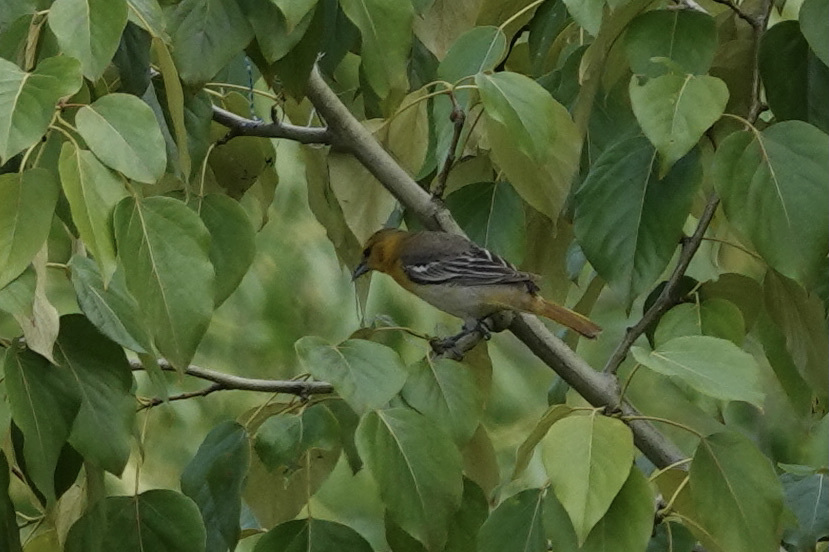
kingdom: Animalia
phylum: Chordata
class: Aves
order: Passeriformes
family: Icteridae
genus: Icterus
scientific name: Icterus bullockii
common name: Bullock's oriole
